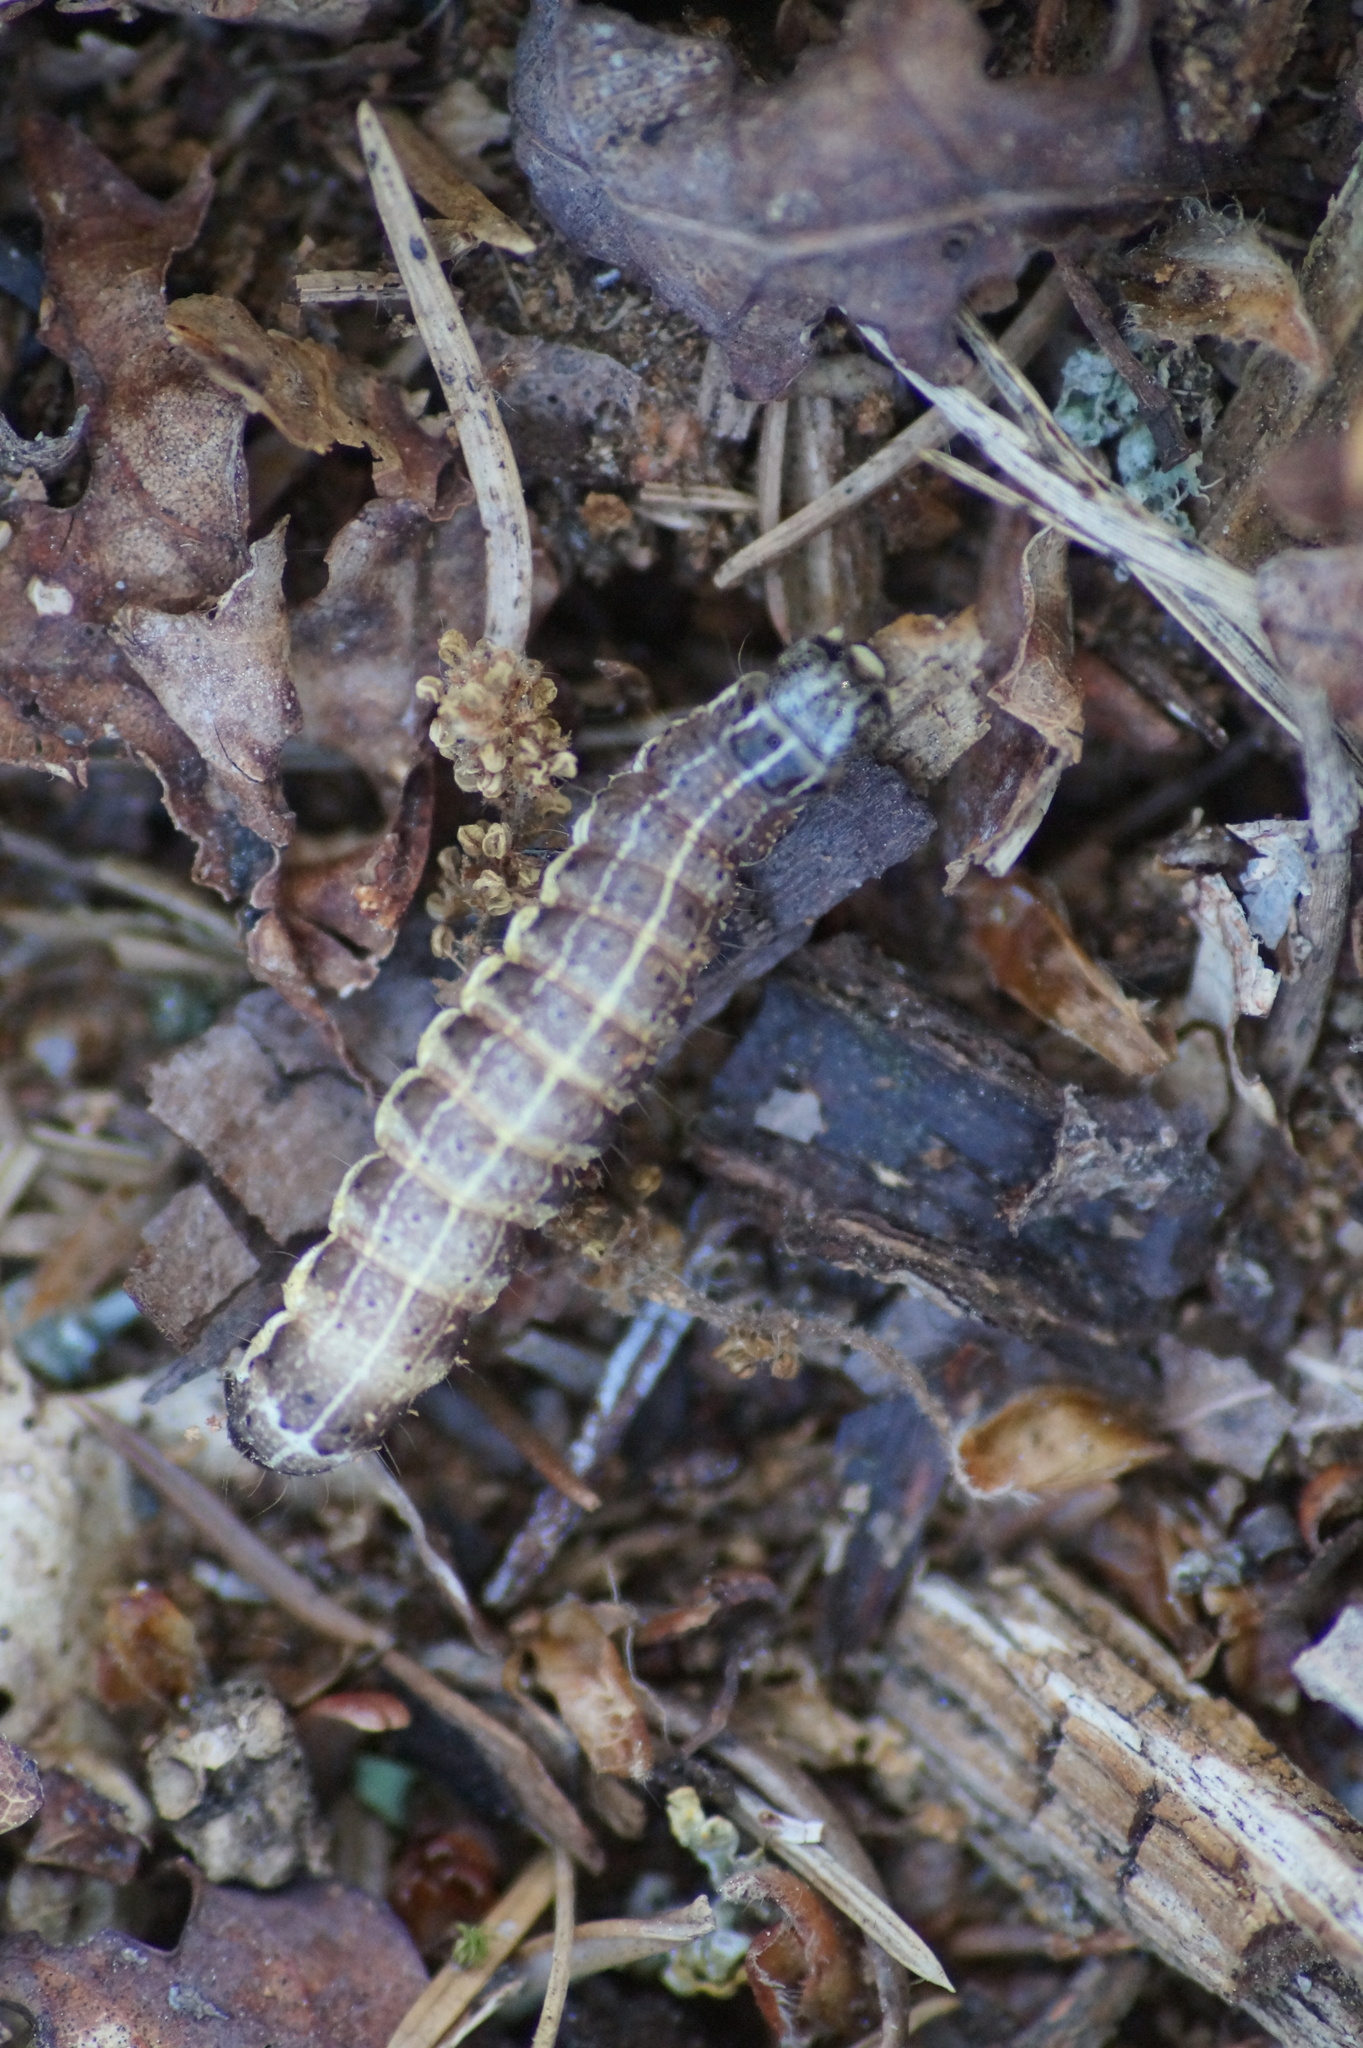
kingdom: Animalia
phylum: Arthropoda
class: Insecta
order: Lepidoptera
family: Noctuidae
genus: Orthosia
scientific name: Orthosia cruda
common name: Small quaker
